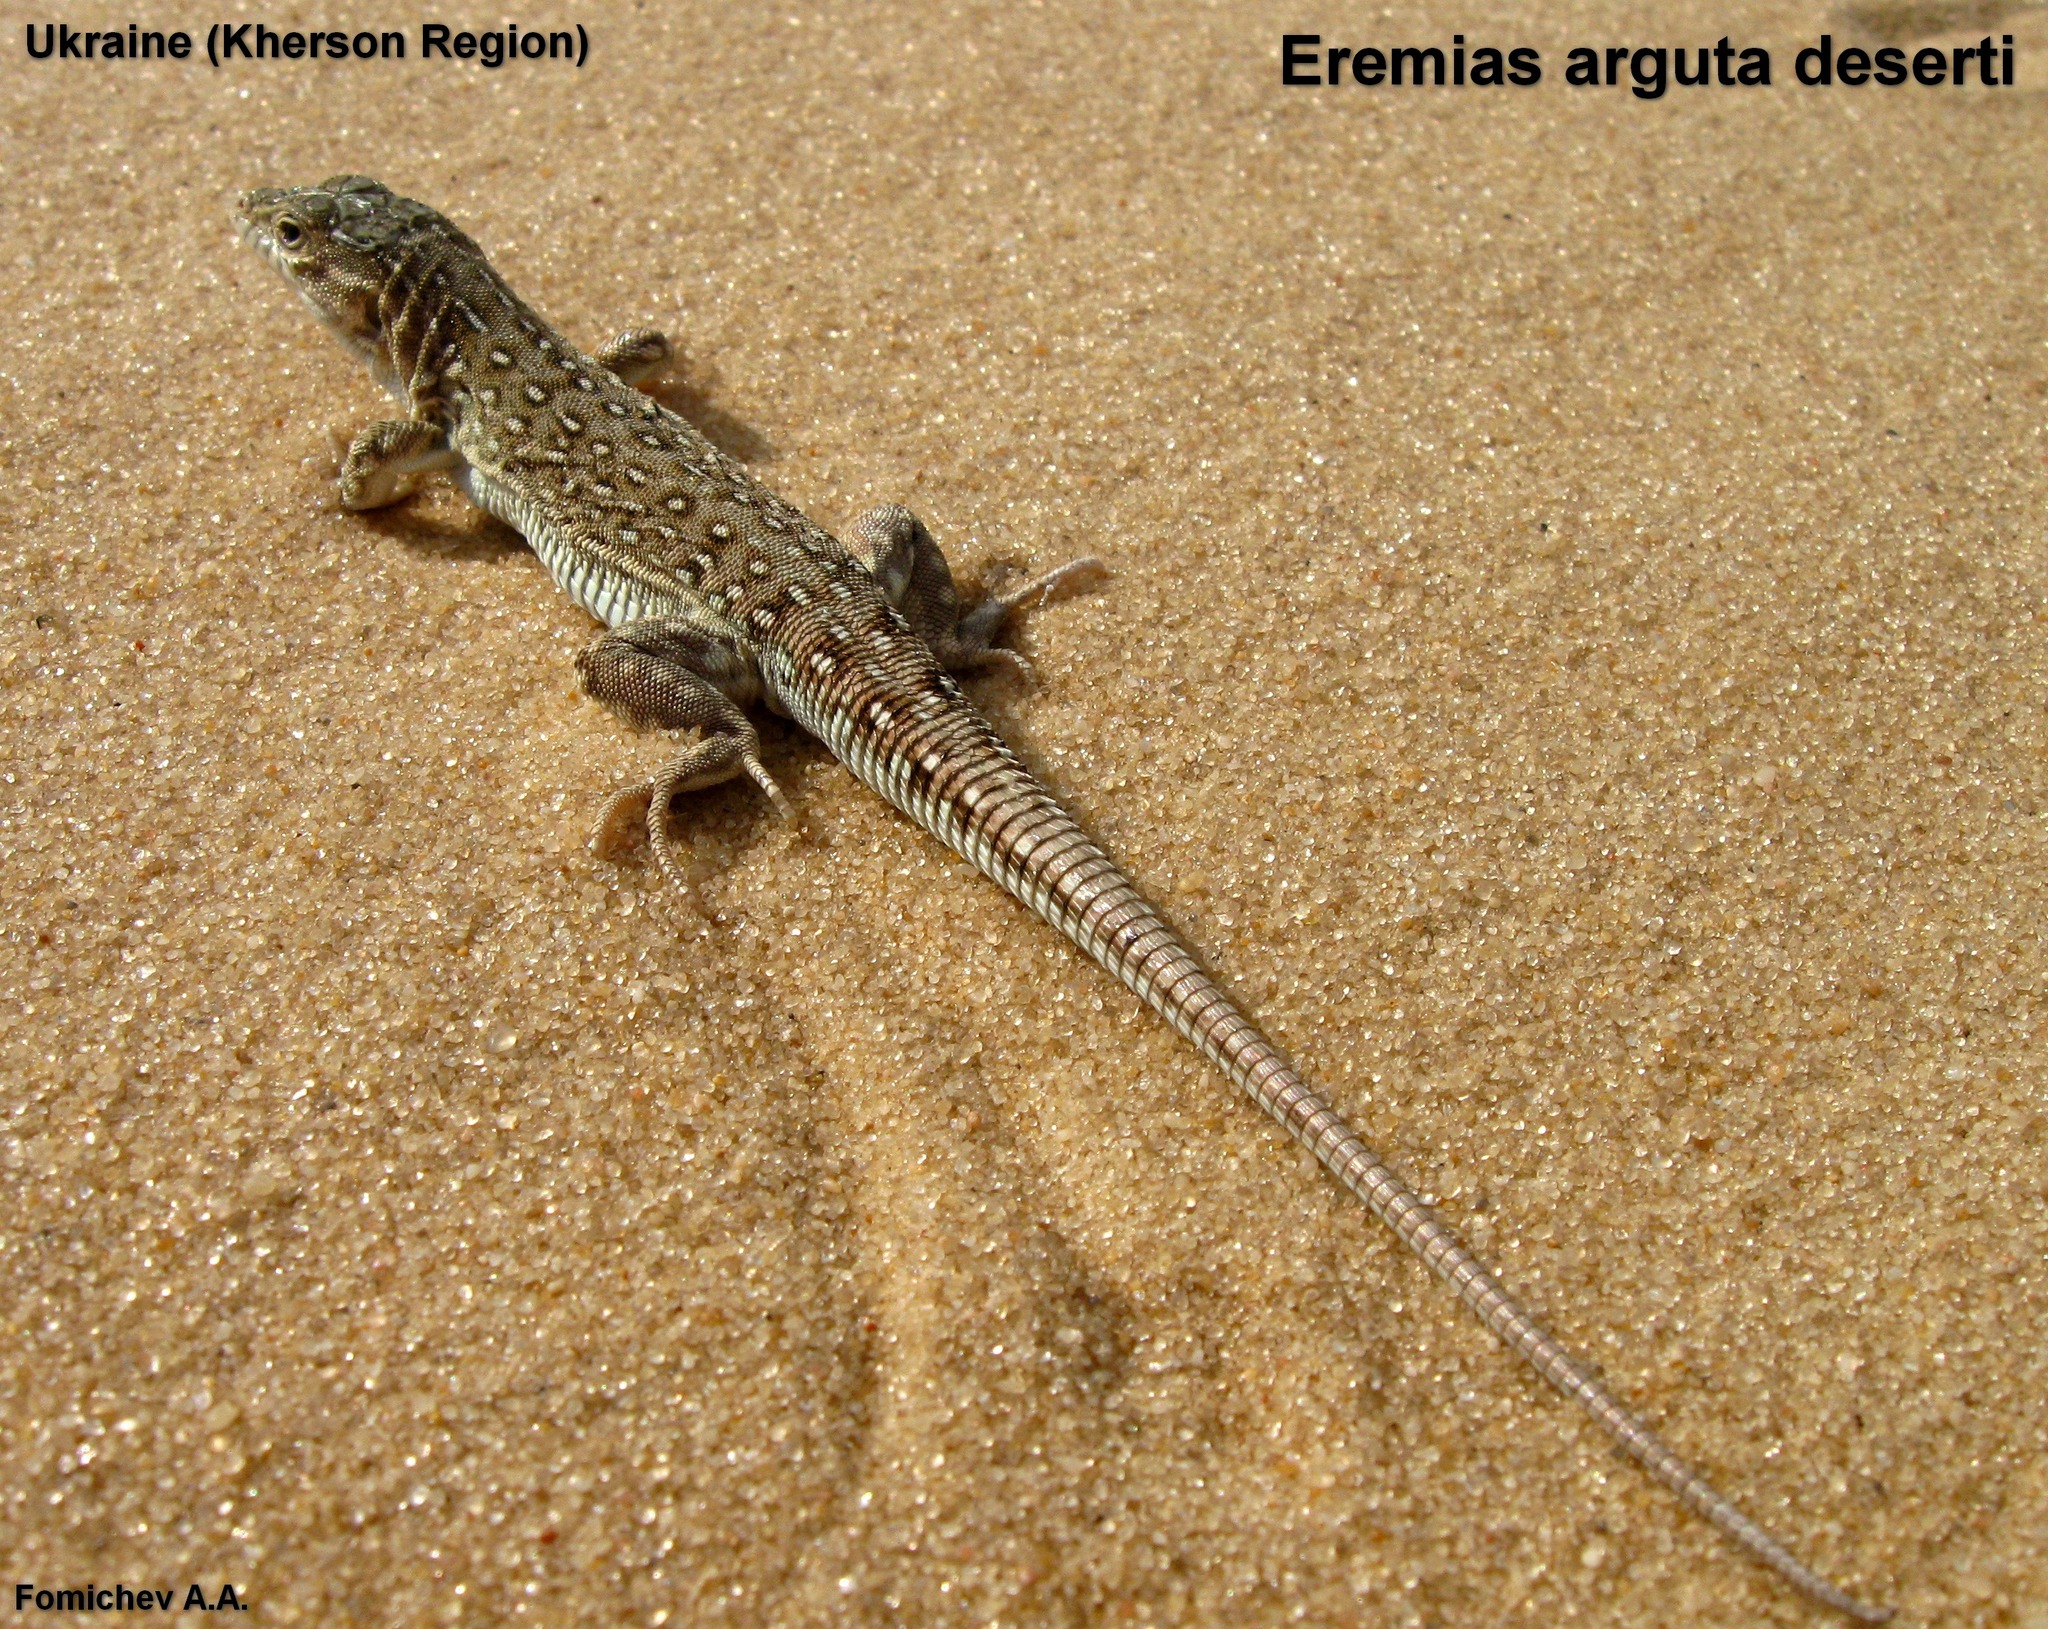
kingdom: Animalia
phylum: Chordata
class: Squamata
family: Lacertidae
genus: Eremias
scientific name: Eremias arguta
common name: Racerunner
